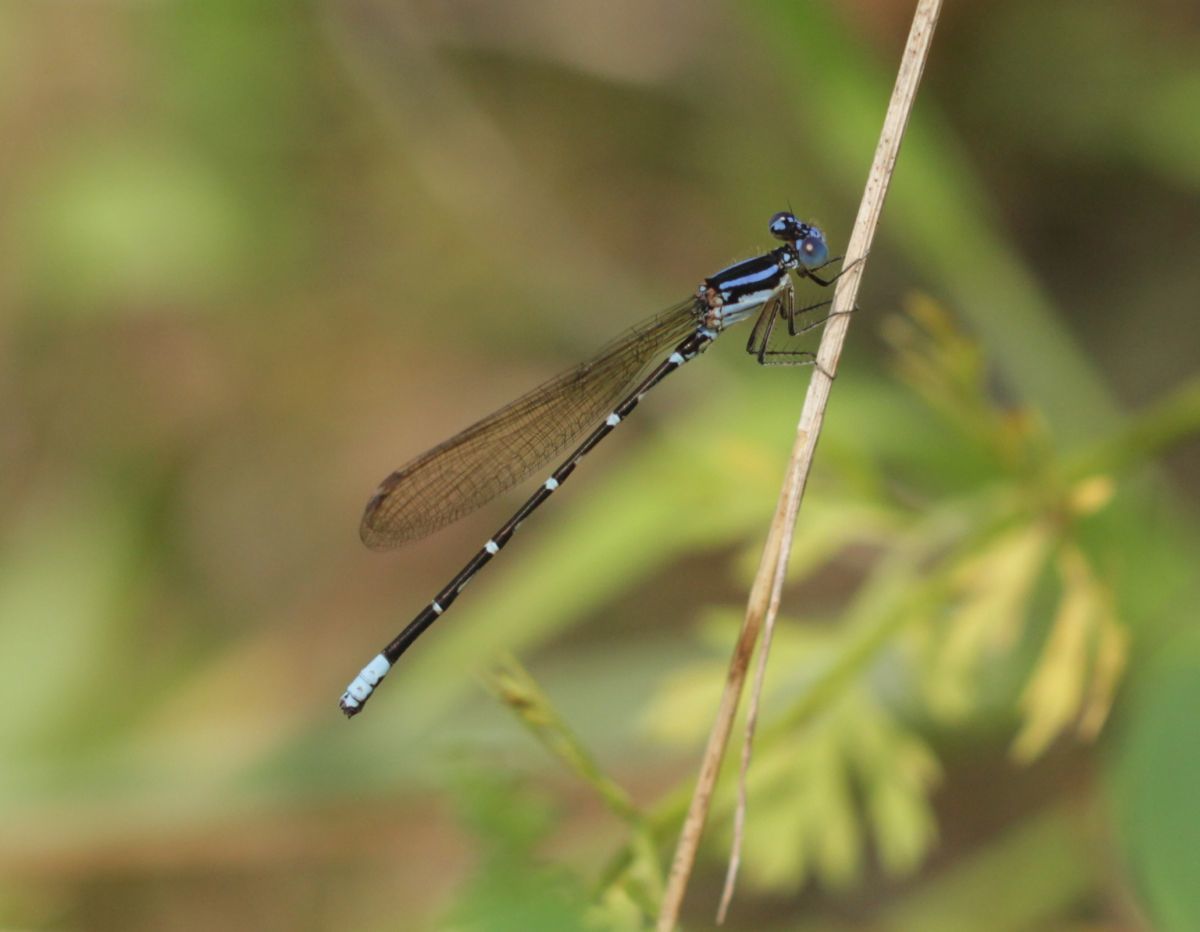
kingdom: Animalia
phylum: Arthropoda
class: Insecta
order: Odonata
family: Coenagrionidae
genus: Argia
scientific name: Argia sedula
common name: Blue-ringed dancer
